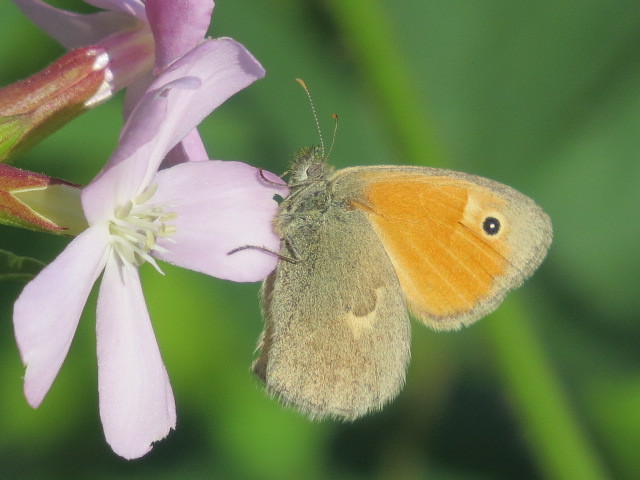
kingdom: Animalia
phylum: Arthropoda
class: Insecta
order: Lepidoptera
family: Nymphalidae
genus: Coenonympha
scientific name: Coenonympha pamphilus
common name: Small heath
